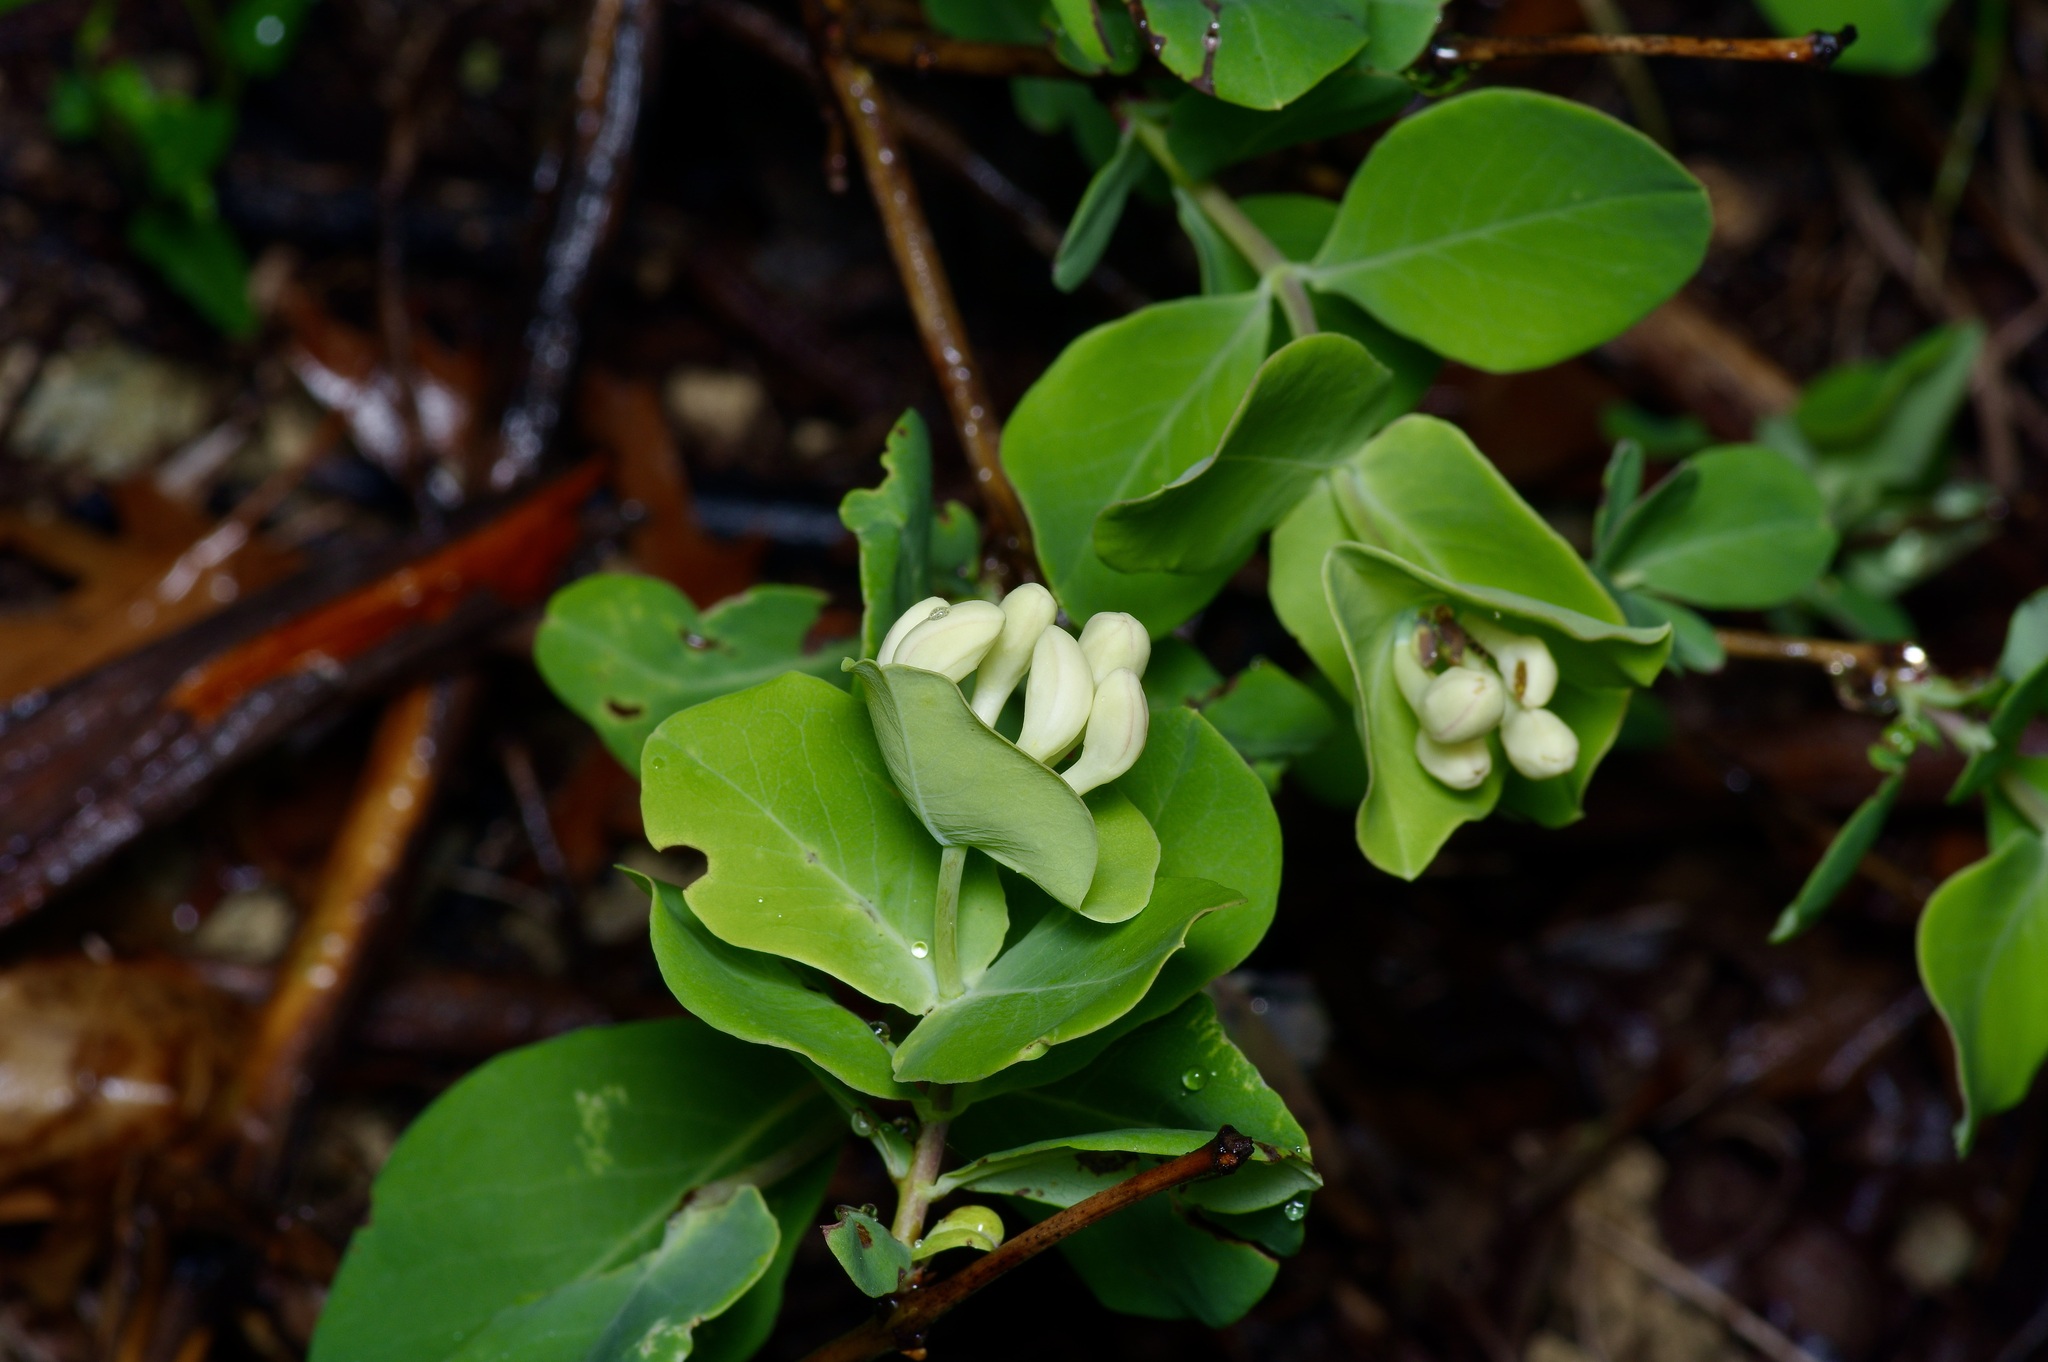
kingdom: Plantae
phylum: Tracheophyta
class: Magnoliopsida
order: Dipsacales
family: Caprifoliaceae
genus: Lonicera
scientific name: Lonicera albiflora
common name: White honeysuckle
